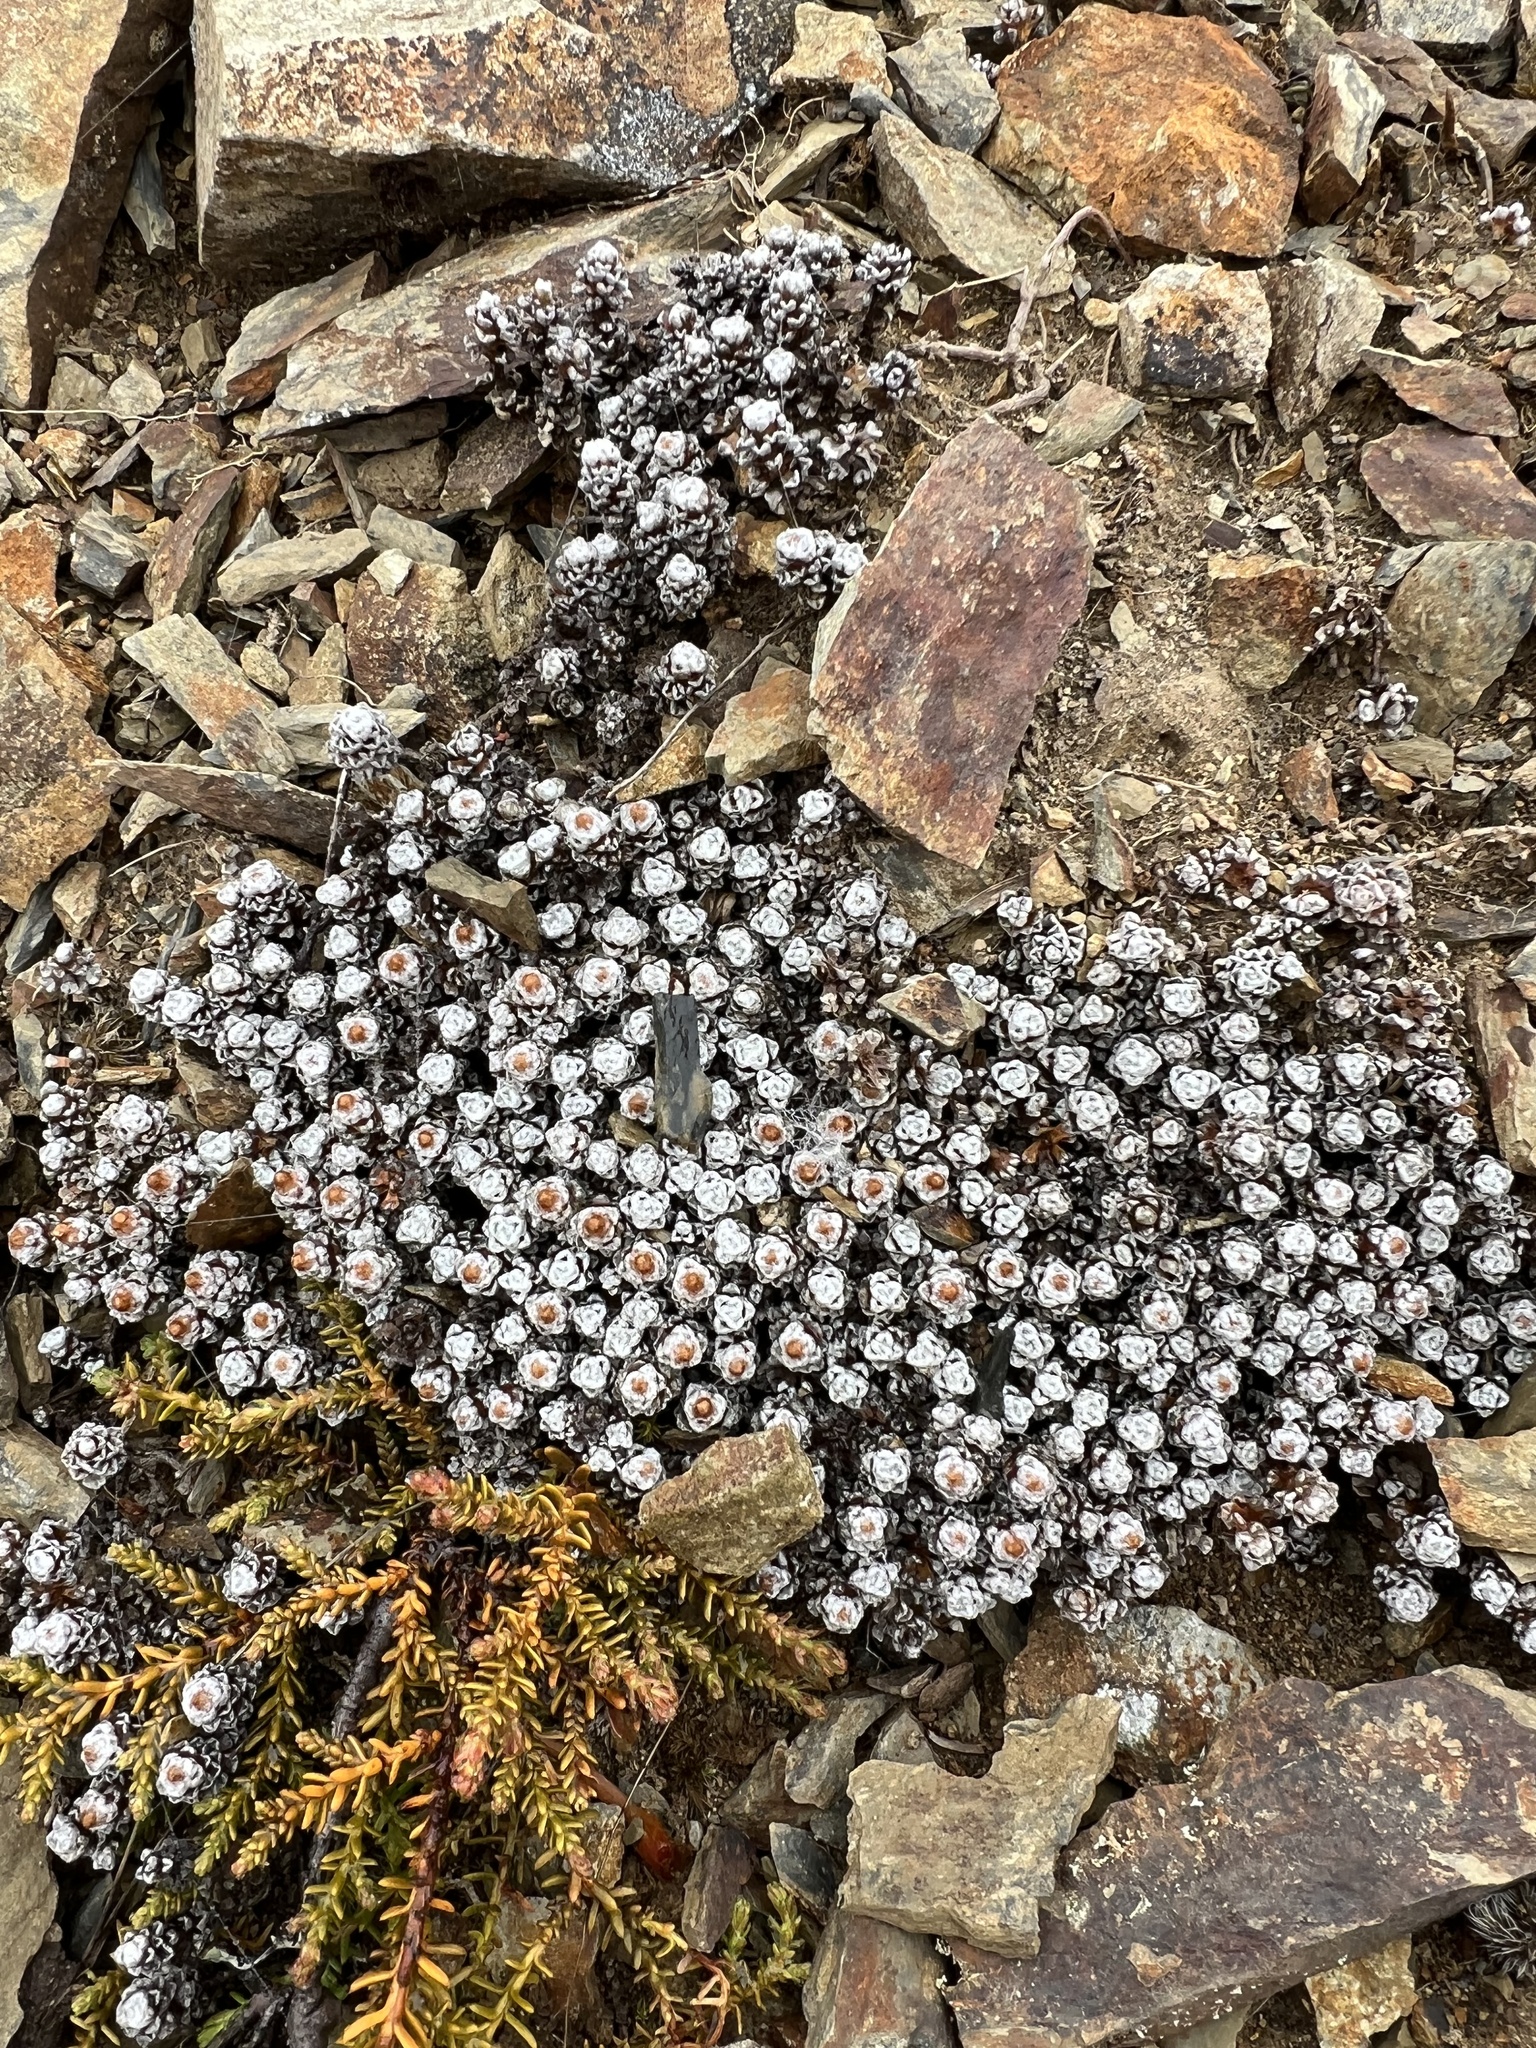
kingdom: Plantae
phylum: Tracheophyta
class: Magnoliopsida
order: Asterales
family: Asteraceae
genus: Raoulia
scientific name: Raoulia albosericea
